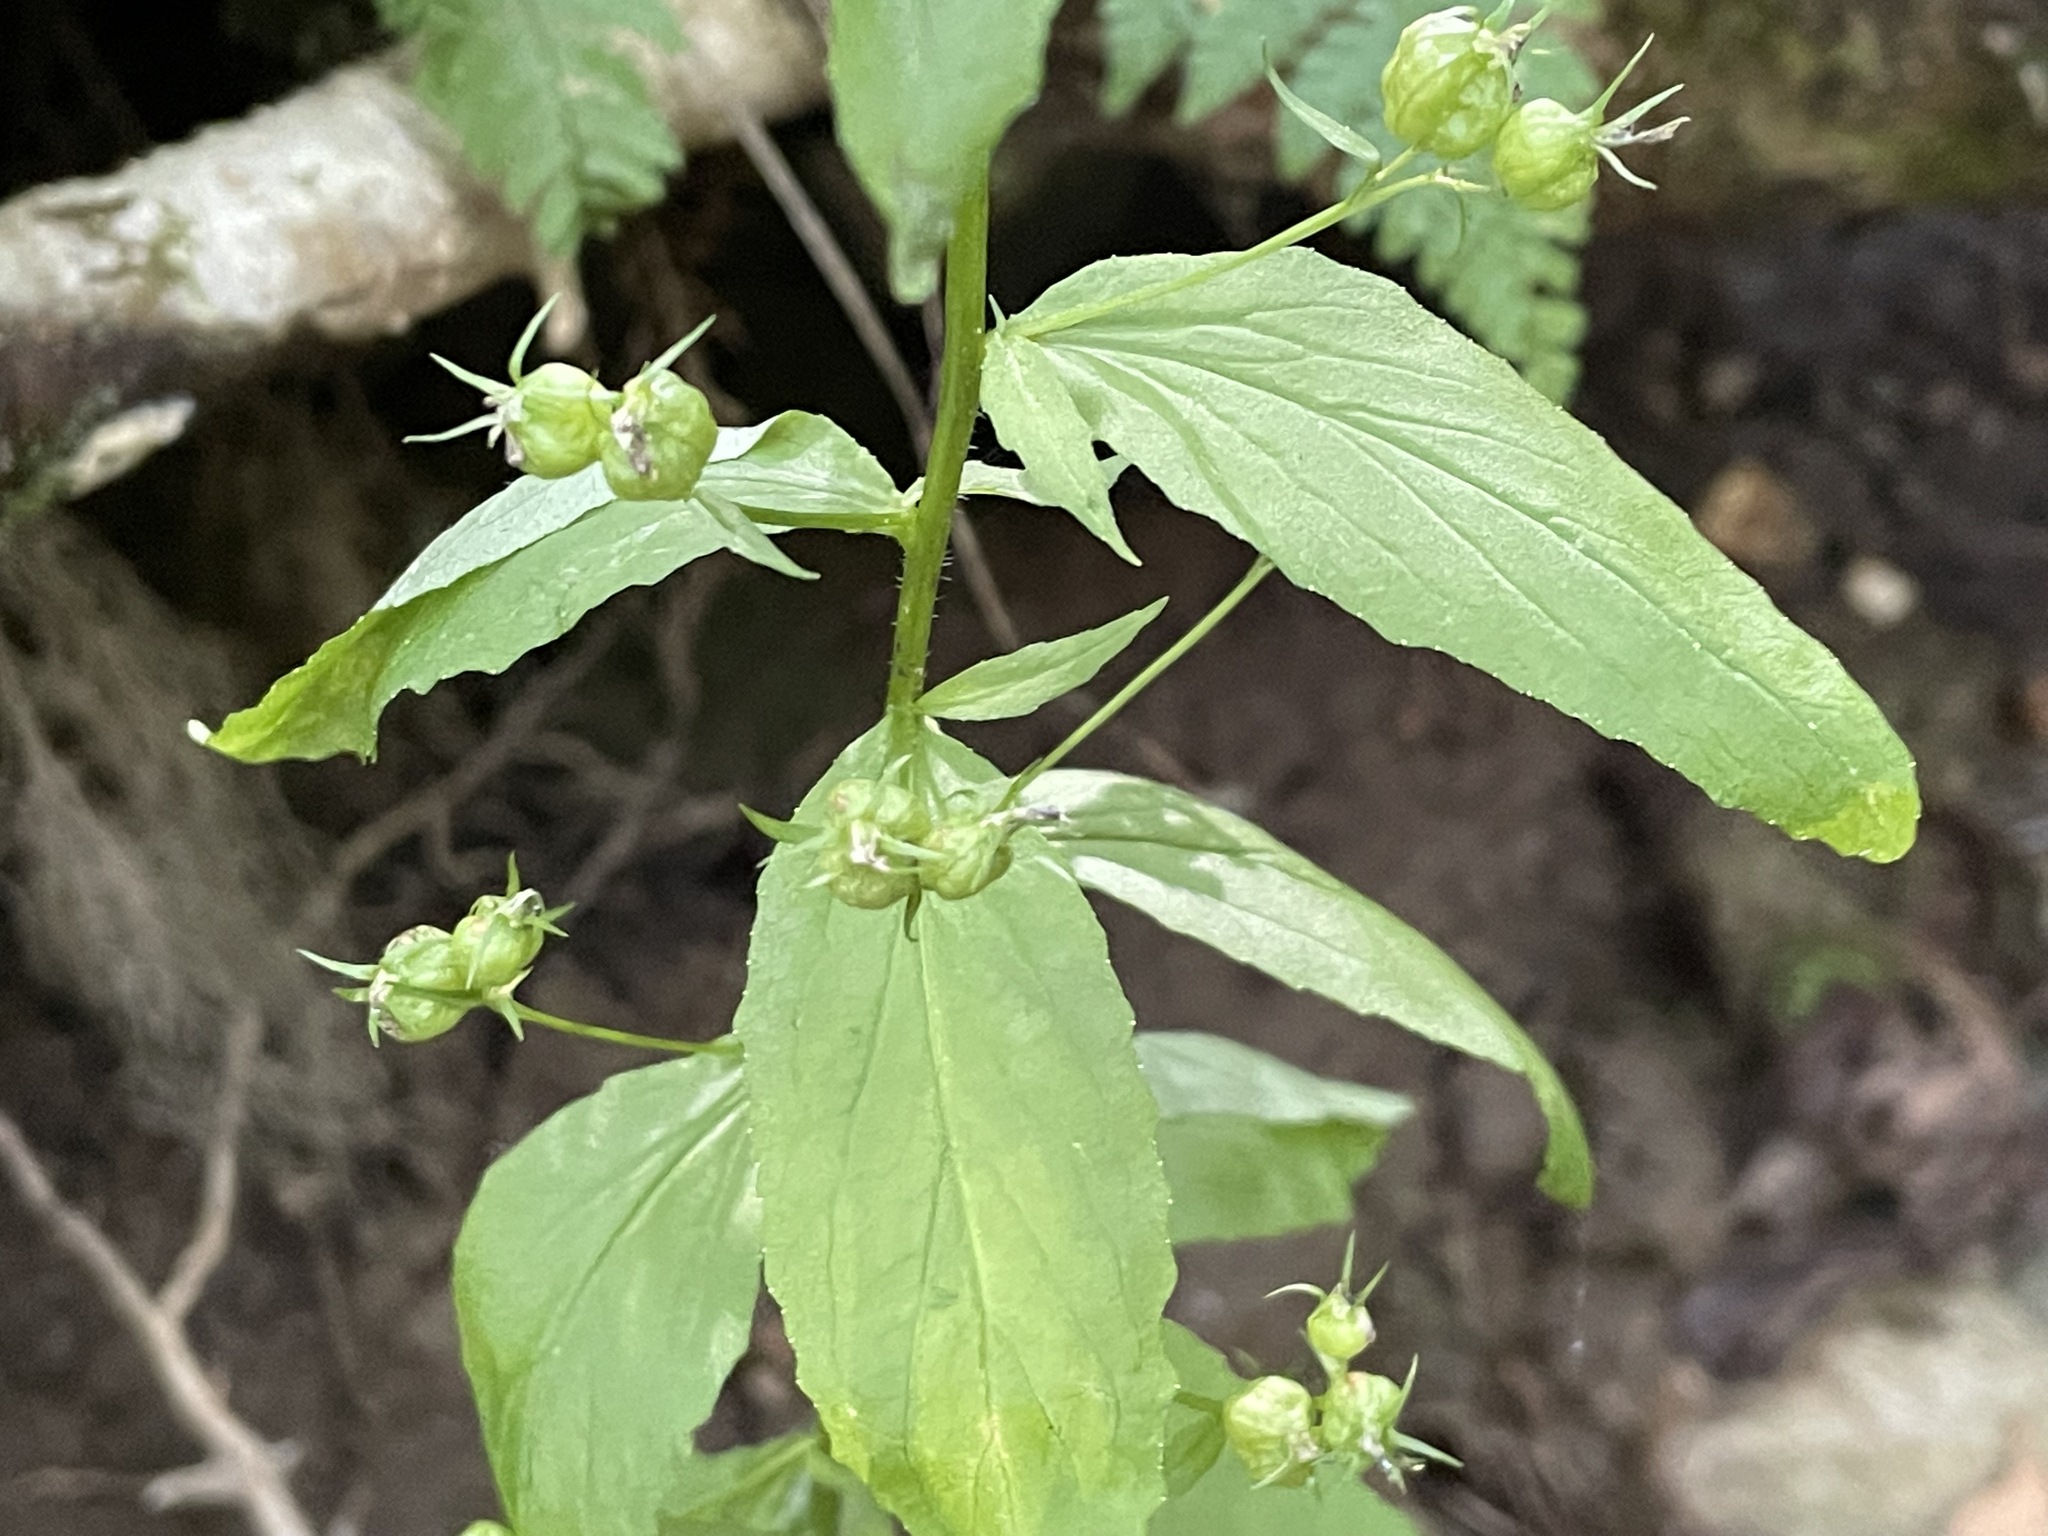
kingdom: Plantae
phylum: Tracheophyta
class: Magnoliopsida
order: Asterales
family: Campanulaceae
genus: Lobelia
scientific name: Lobelia inflata
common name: Indian tobacco
